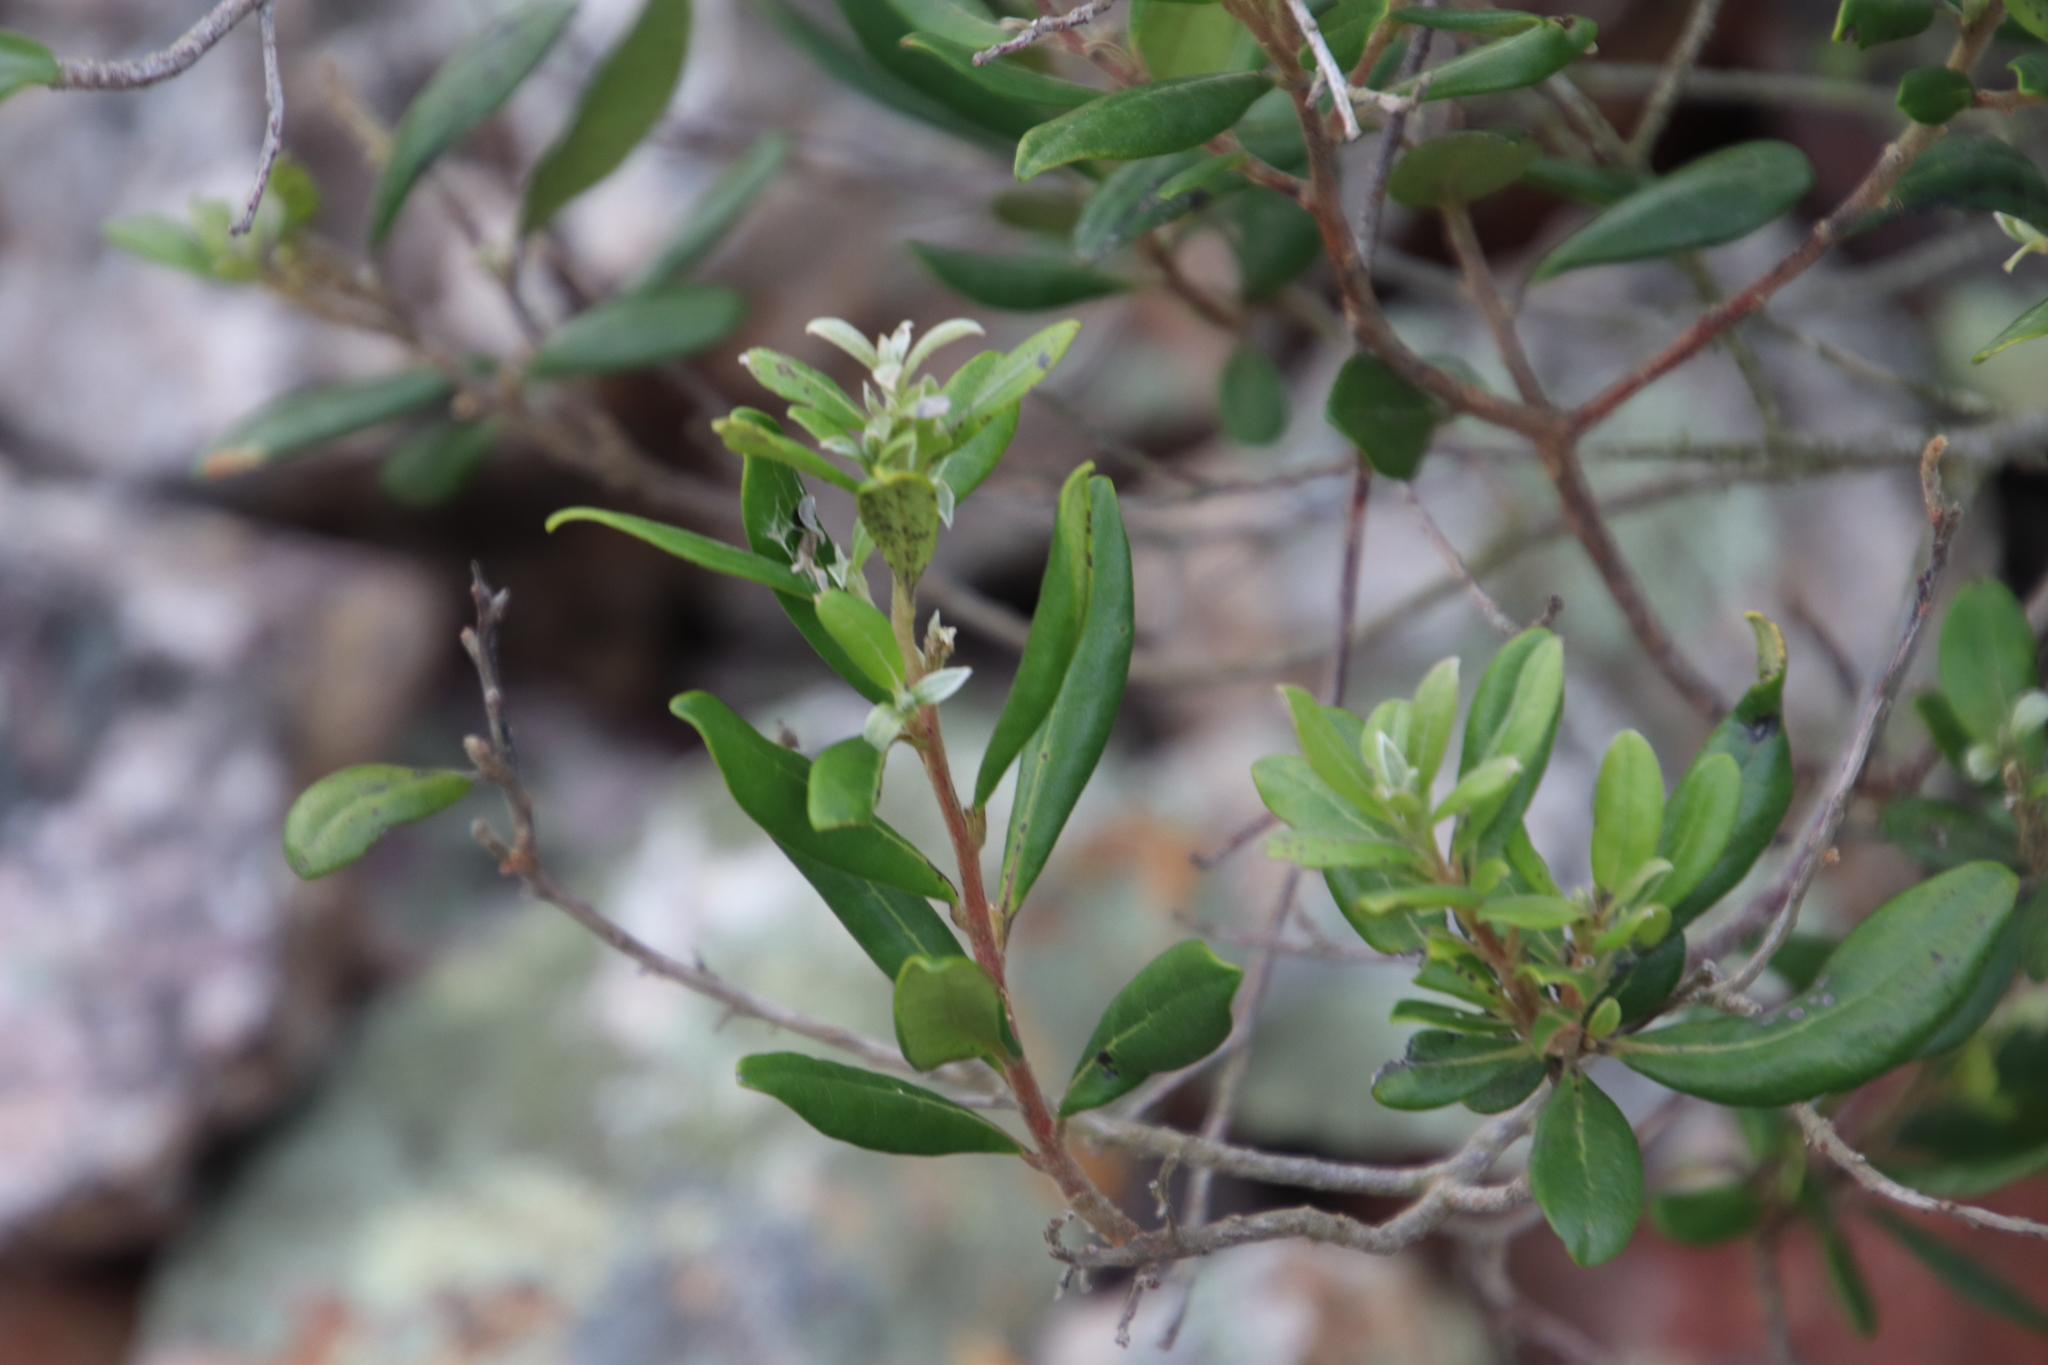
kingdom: Plantae
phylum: Tracheophyta
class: Magnoliopsida
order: Ericales
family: Ebenaceae
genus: Diospyros
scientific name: Diospyros dichrophylla
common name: Common star-apple
